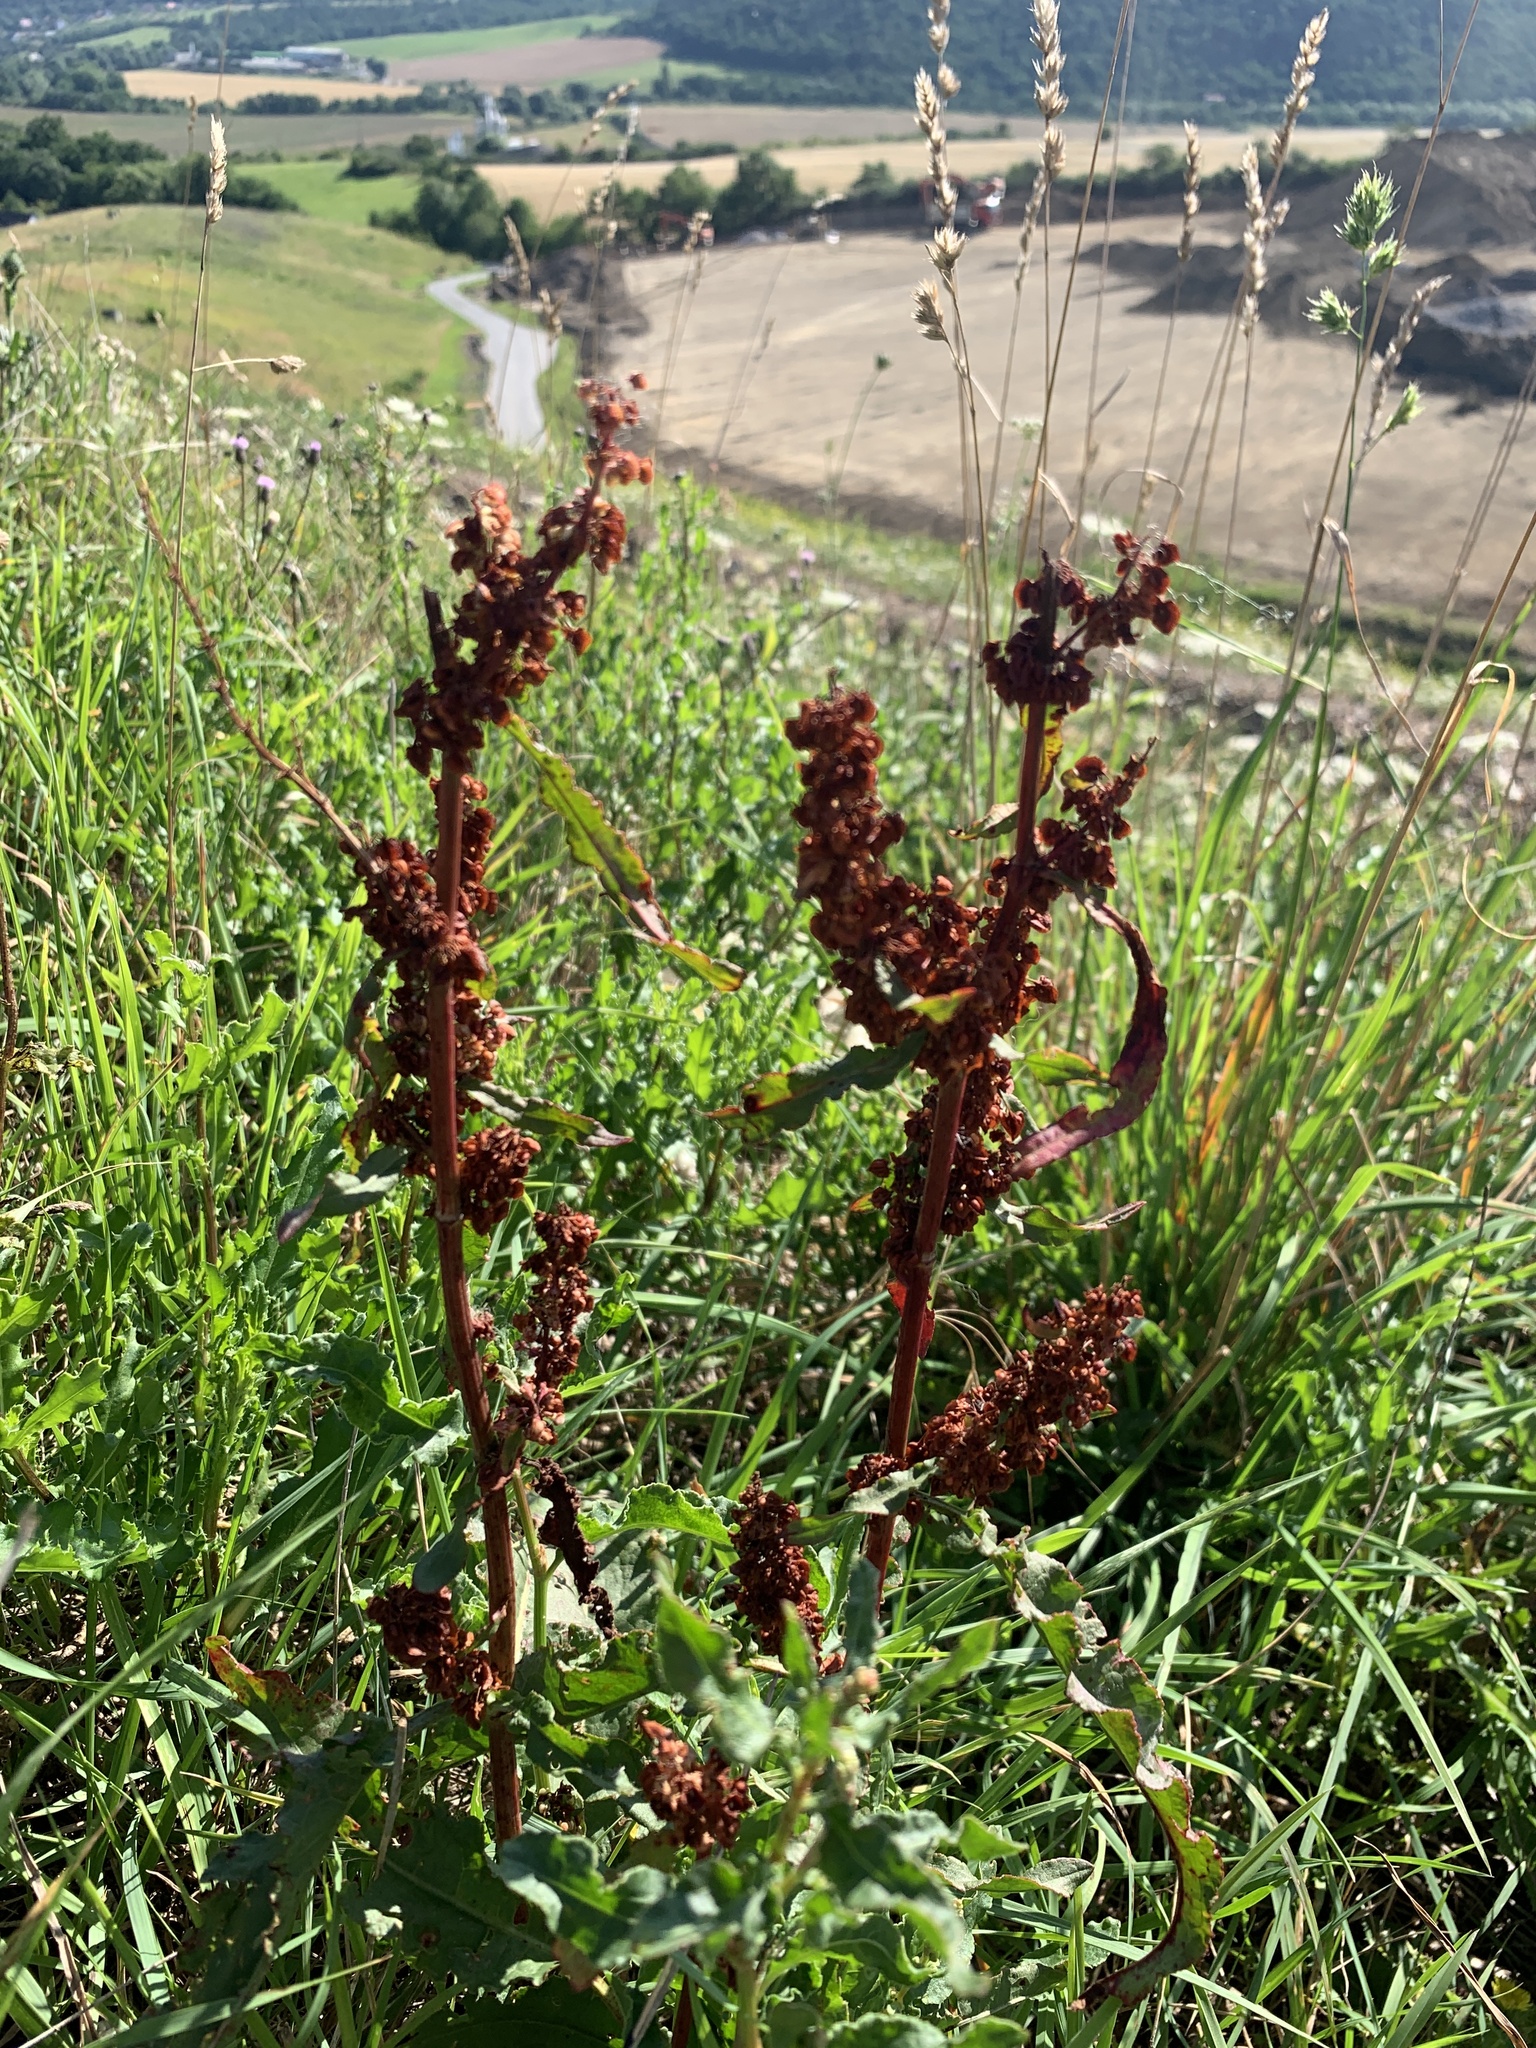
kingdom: Plantae
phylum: Tracheophyta
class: Magnoliopsida
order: Caryophyllales
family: Polygonaceae
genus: Rumex
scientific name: Rumex crispus
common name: Curled dock
